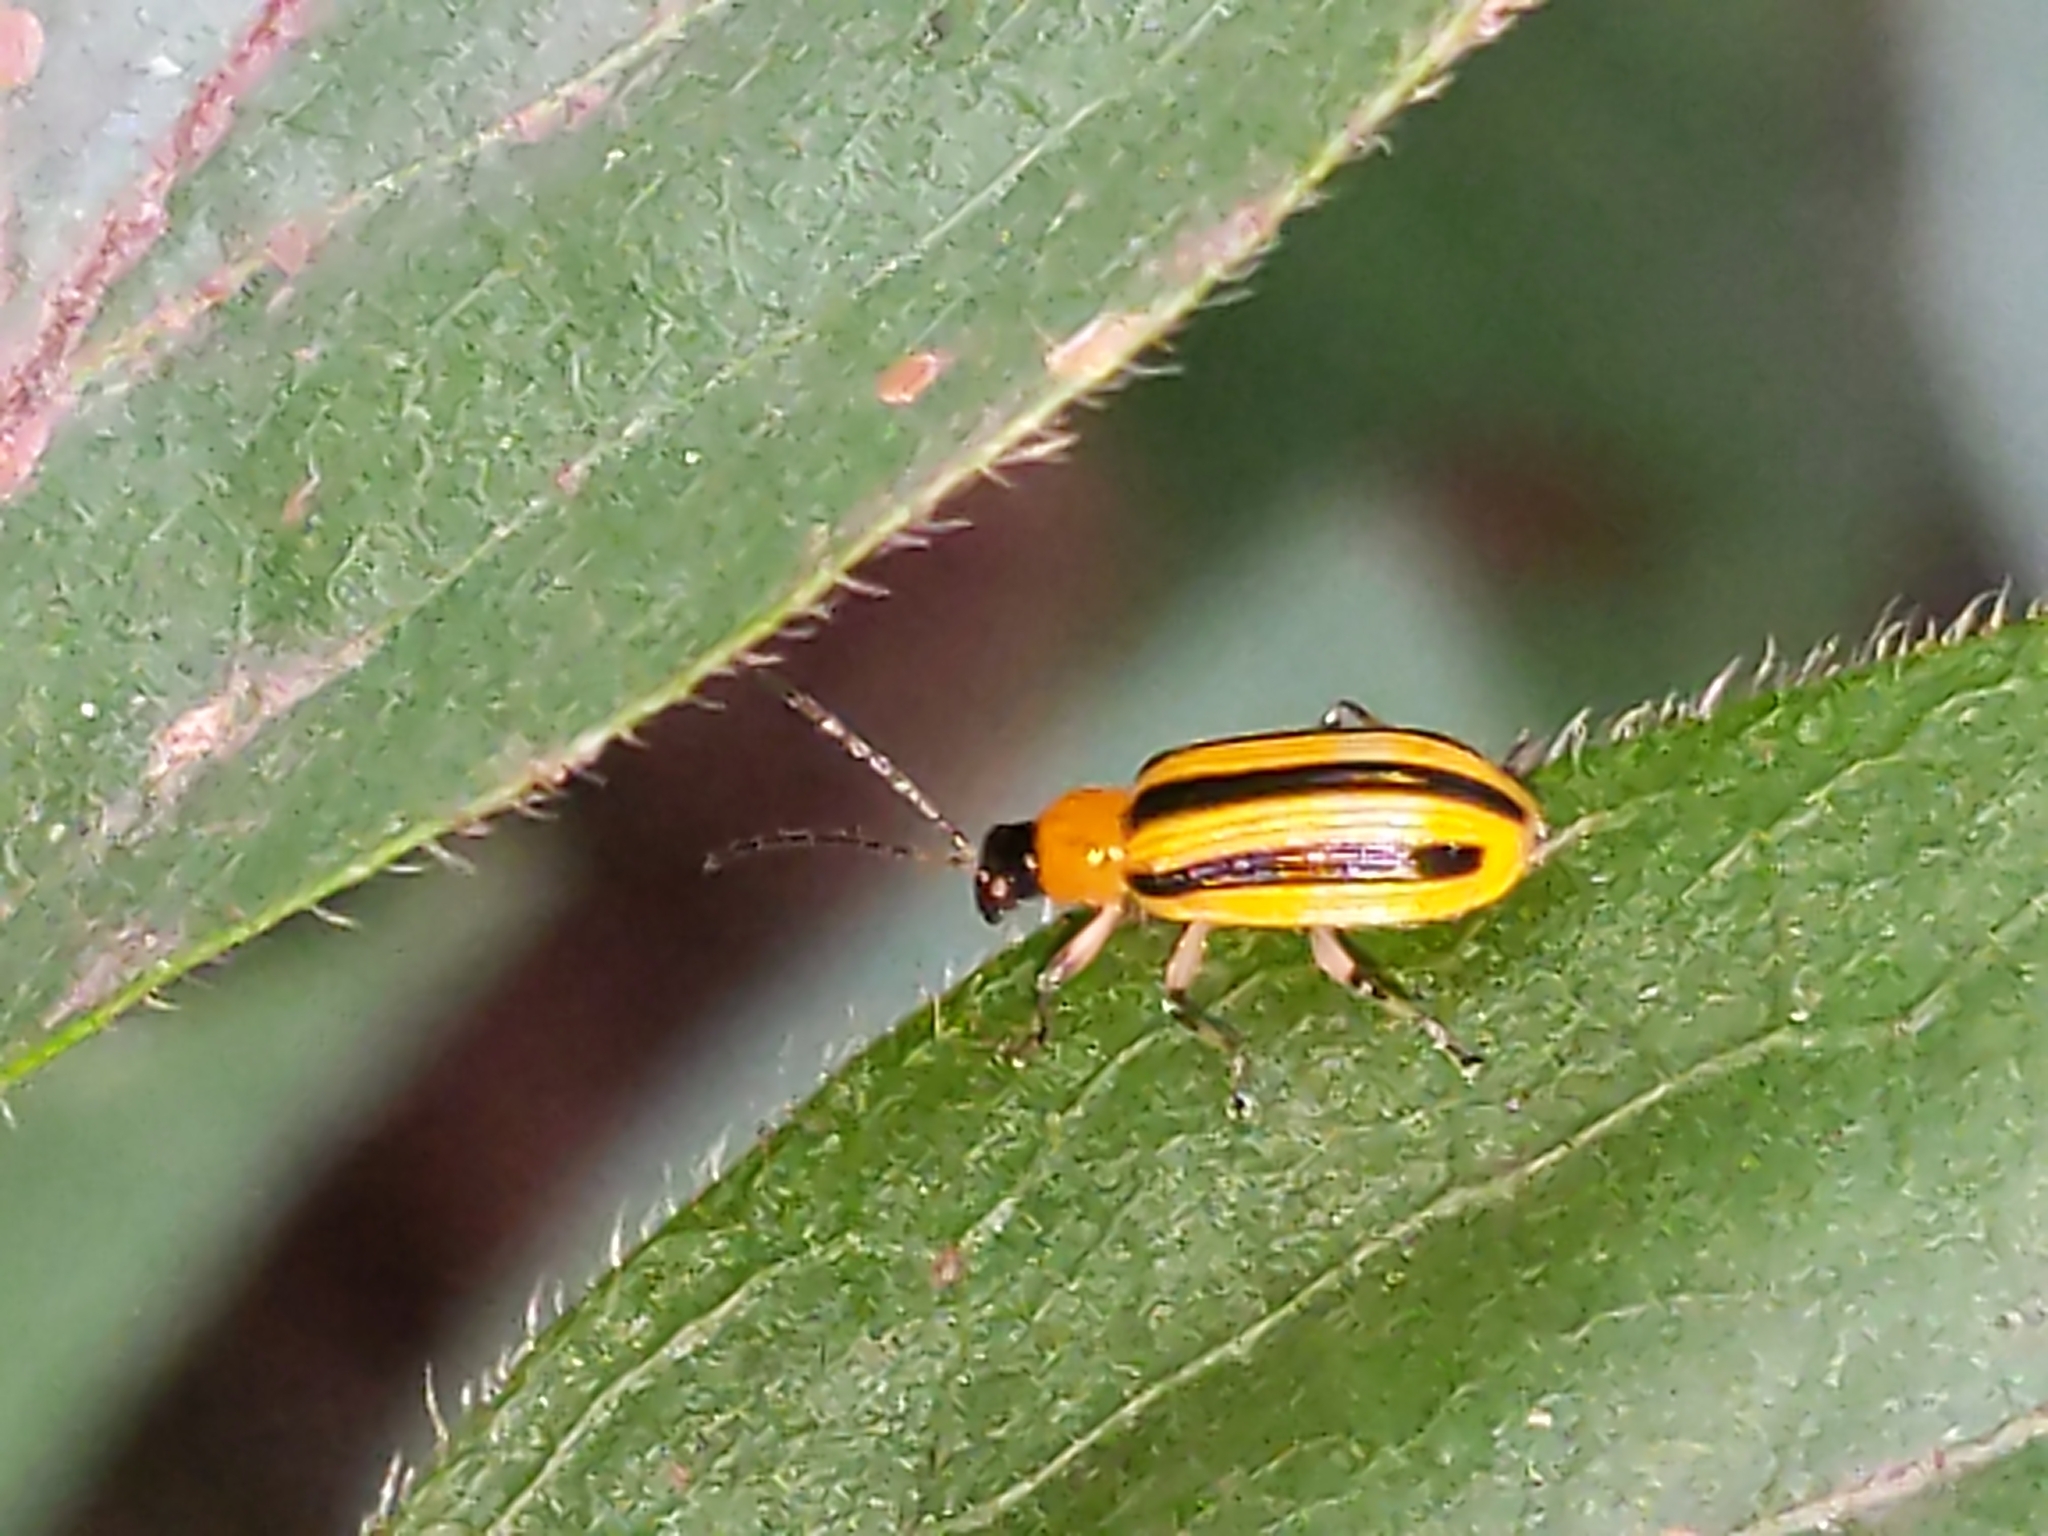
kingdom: Animalia
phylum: Arthropoda
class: Insecta
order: Coleoptera
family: Chrysomelidae
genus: Acalymma
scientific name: Acalymma vittatum
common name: Striped cucumber beetle
